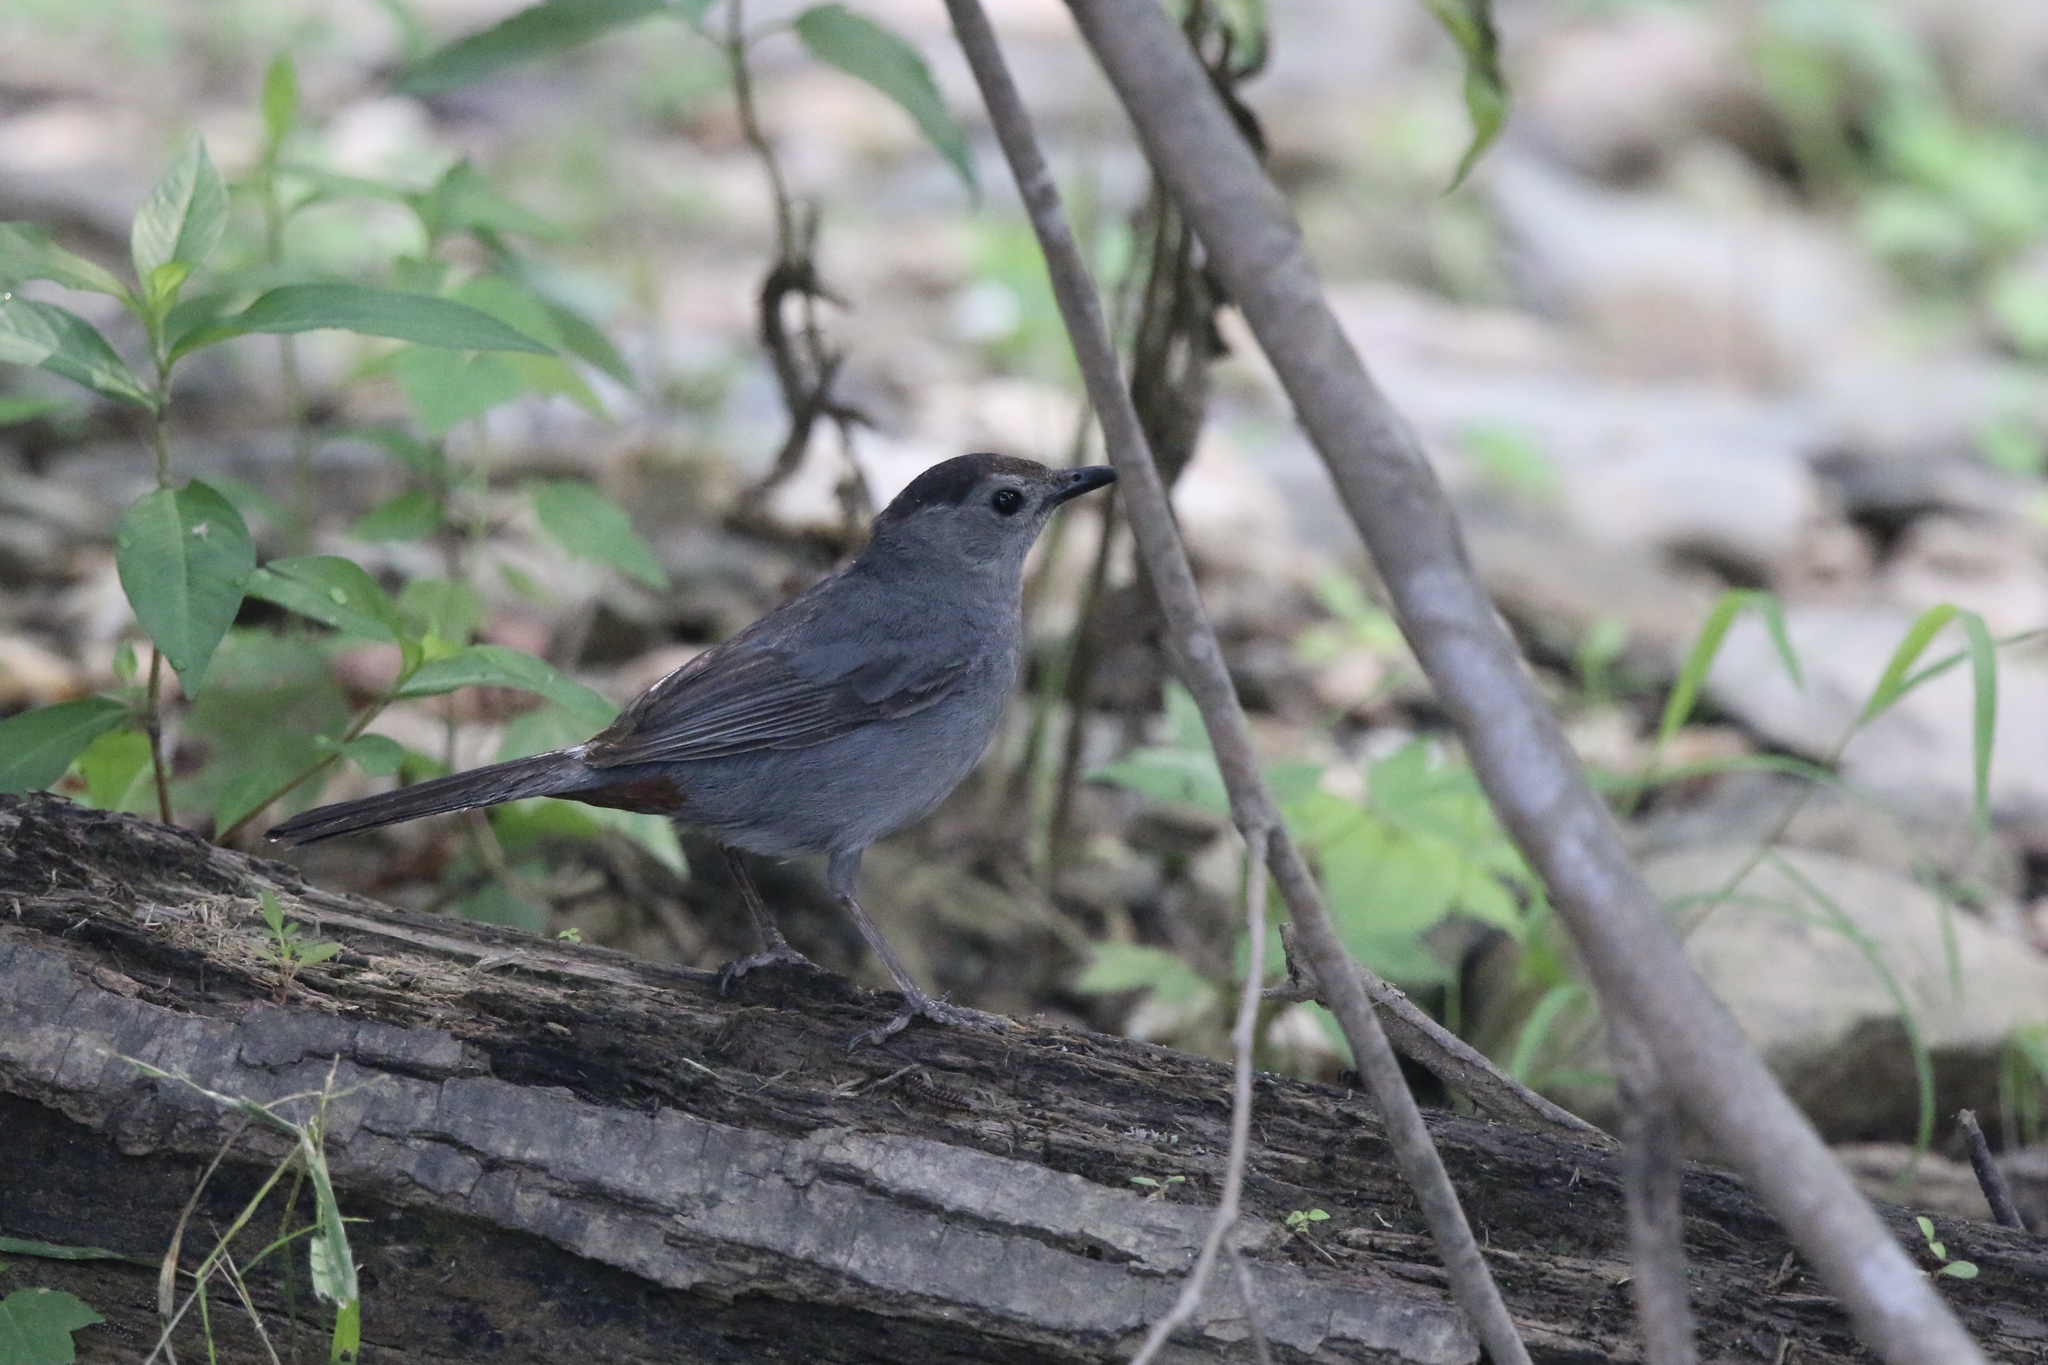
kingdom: Animalia
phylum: Chordata
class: Aves
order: Passeriformes
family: Mimidae
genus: Dumetella
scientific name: Dumetella carolinensis
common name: Gray catbird
